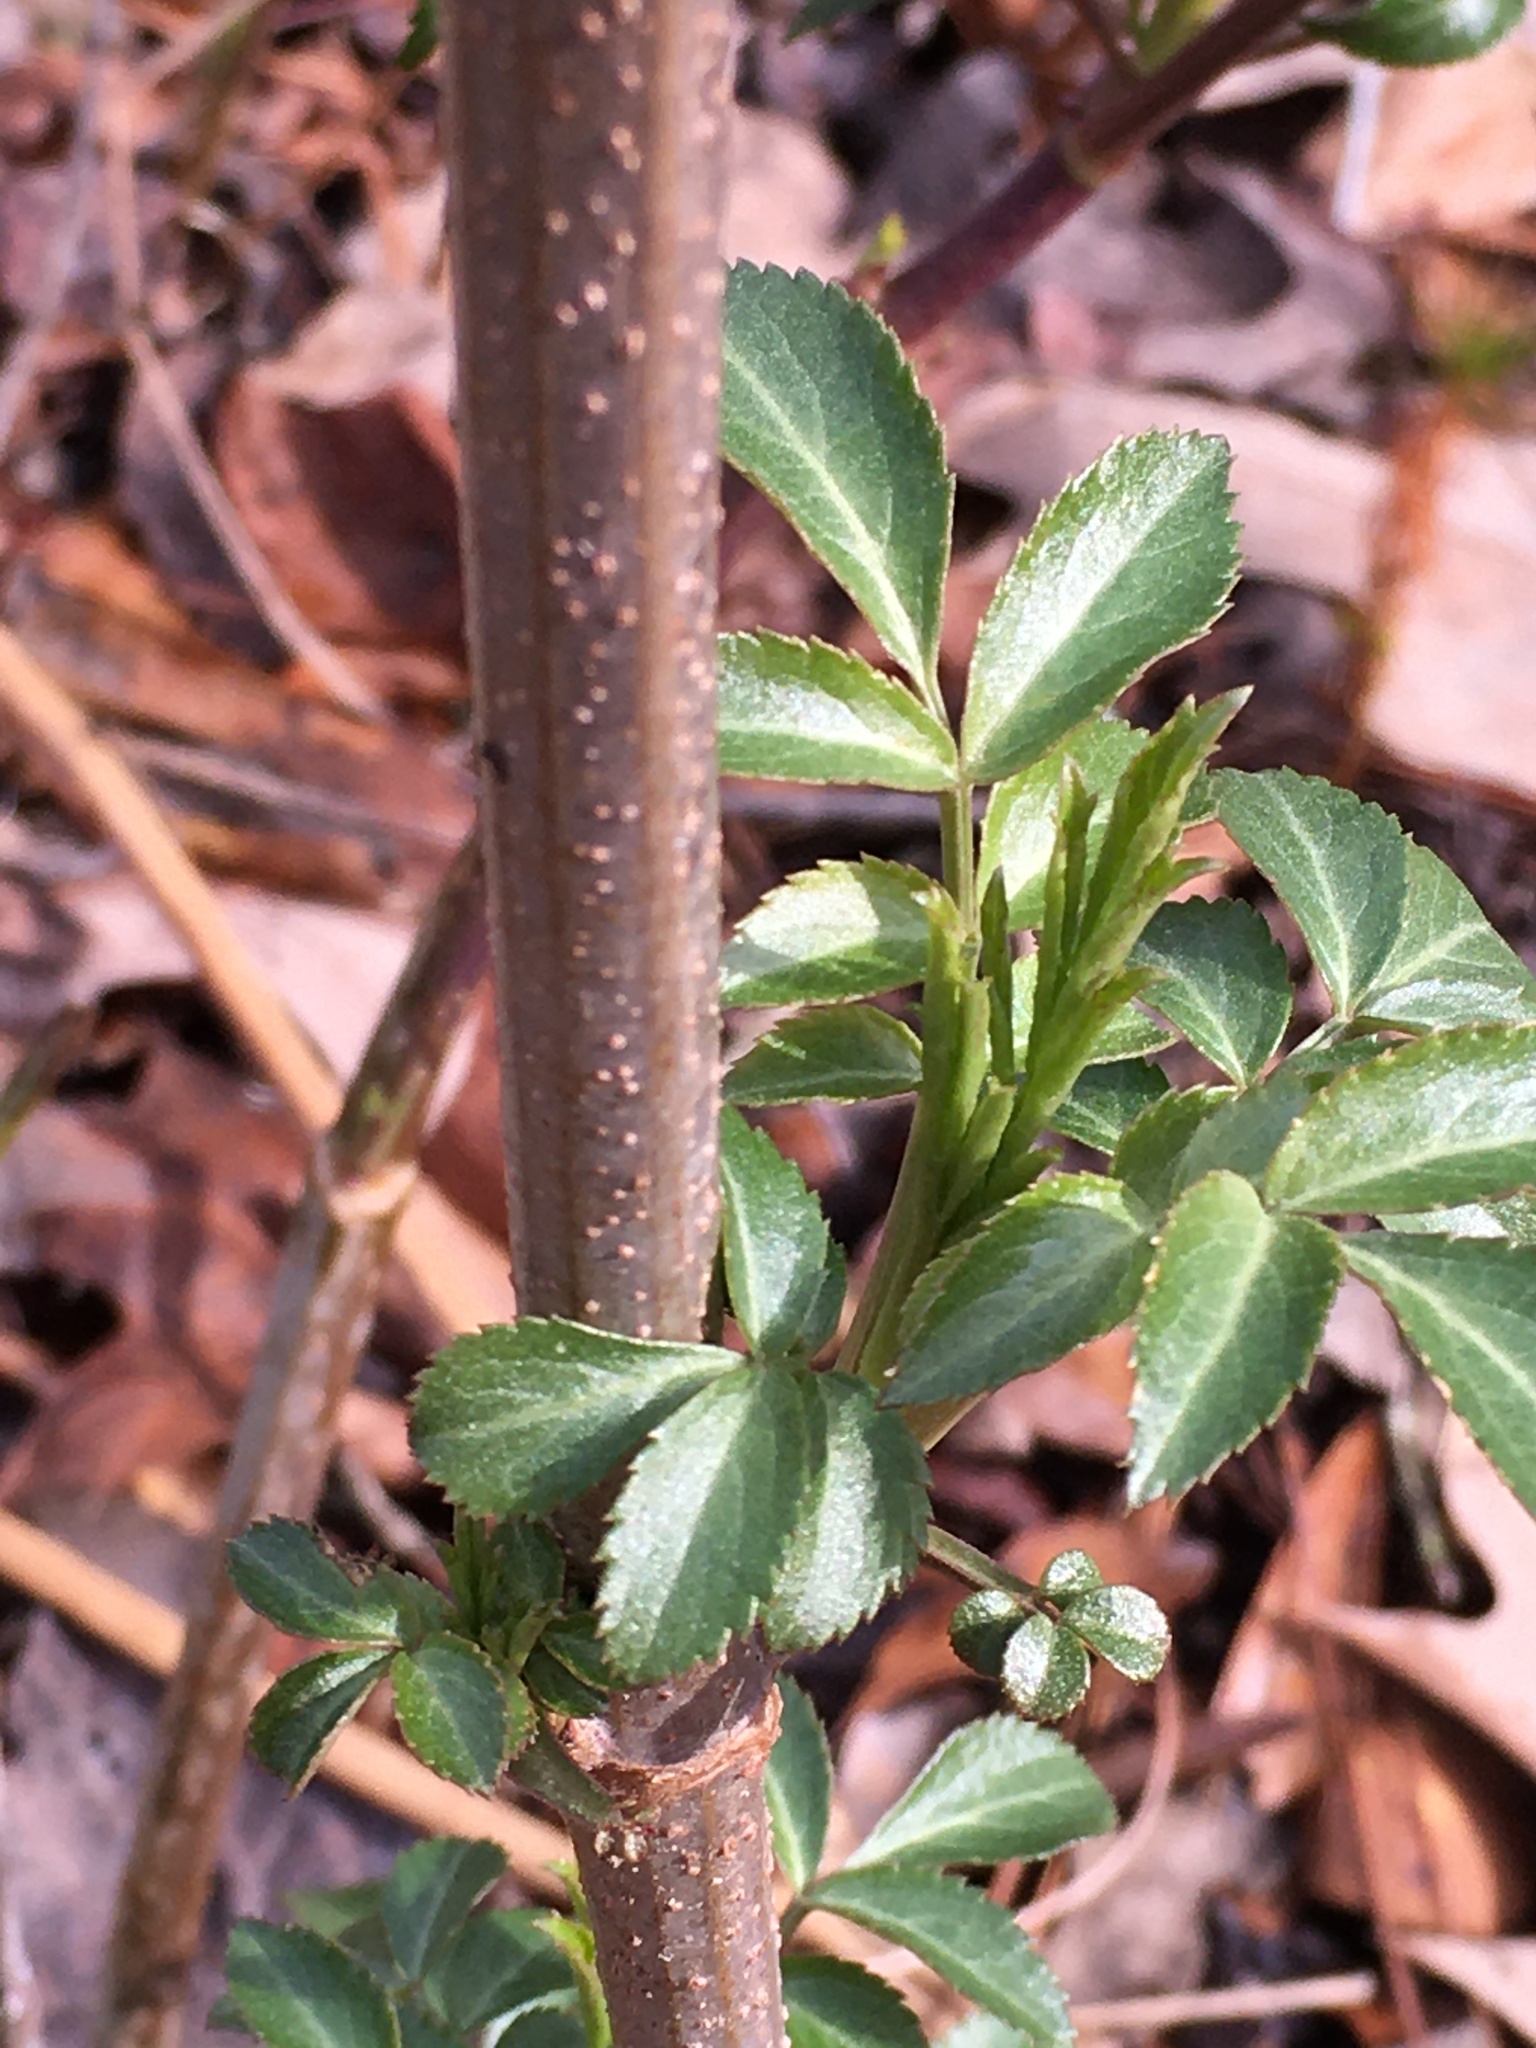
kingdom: Plantae
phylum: Tracheophyta
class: Magnoliopsida
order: Dipsacales
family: Viburnaceae
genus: Sambucus
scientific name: Sambucus canadensis
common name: American elder
